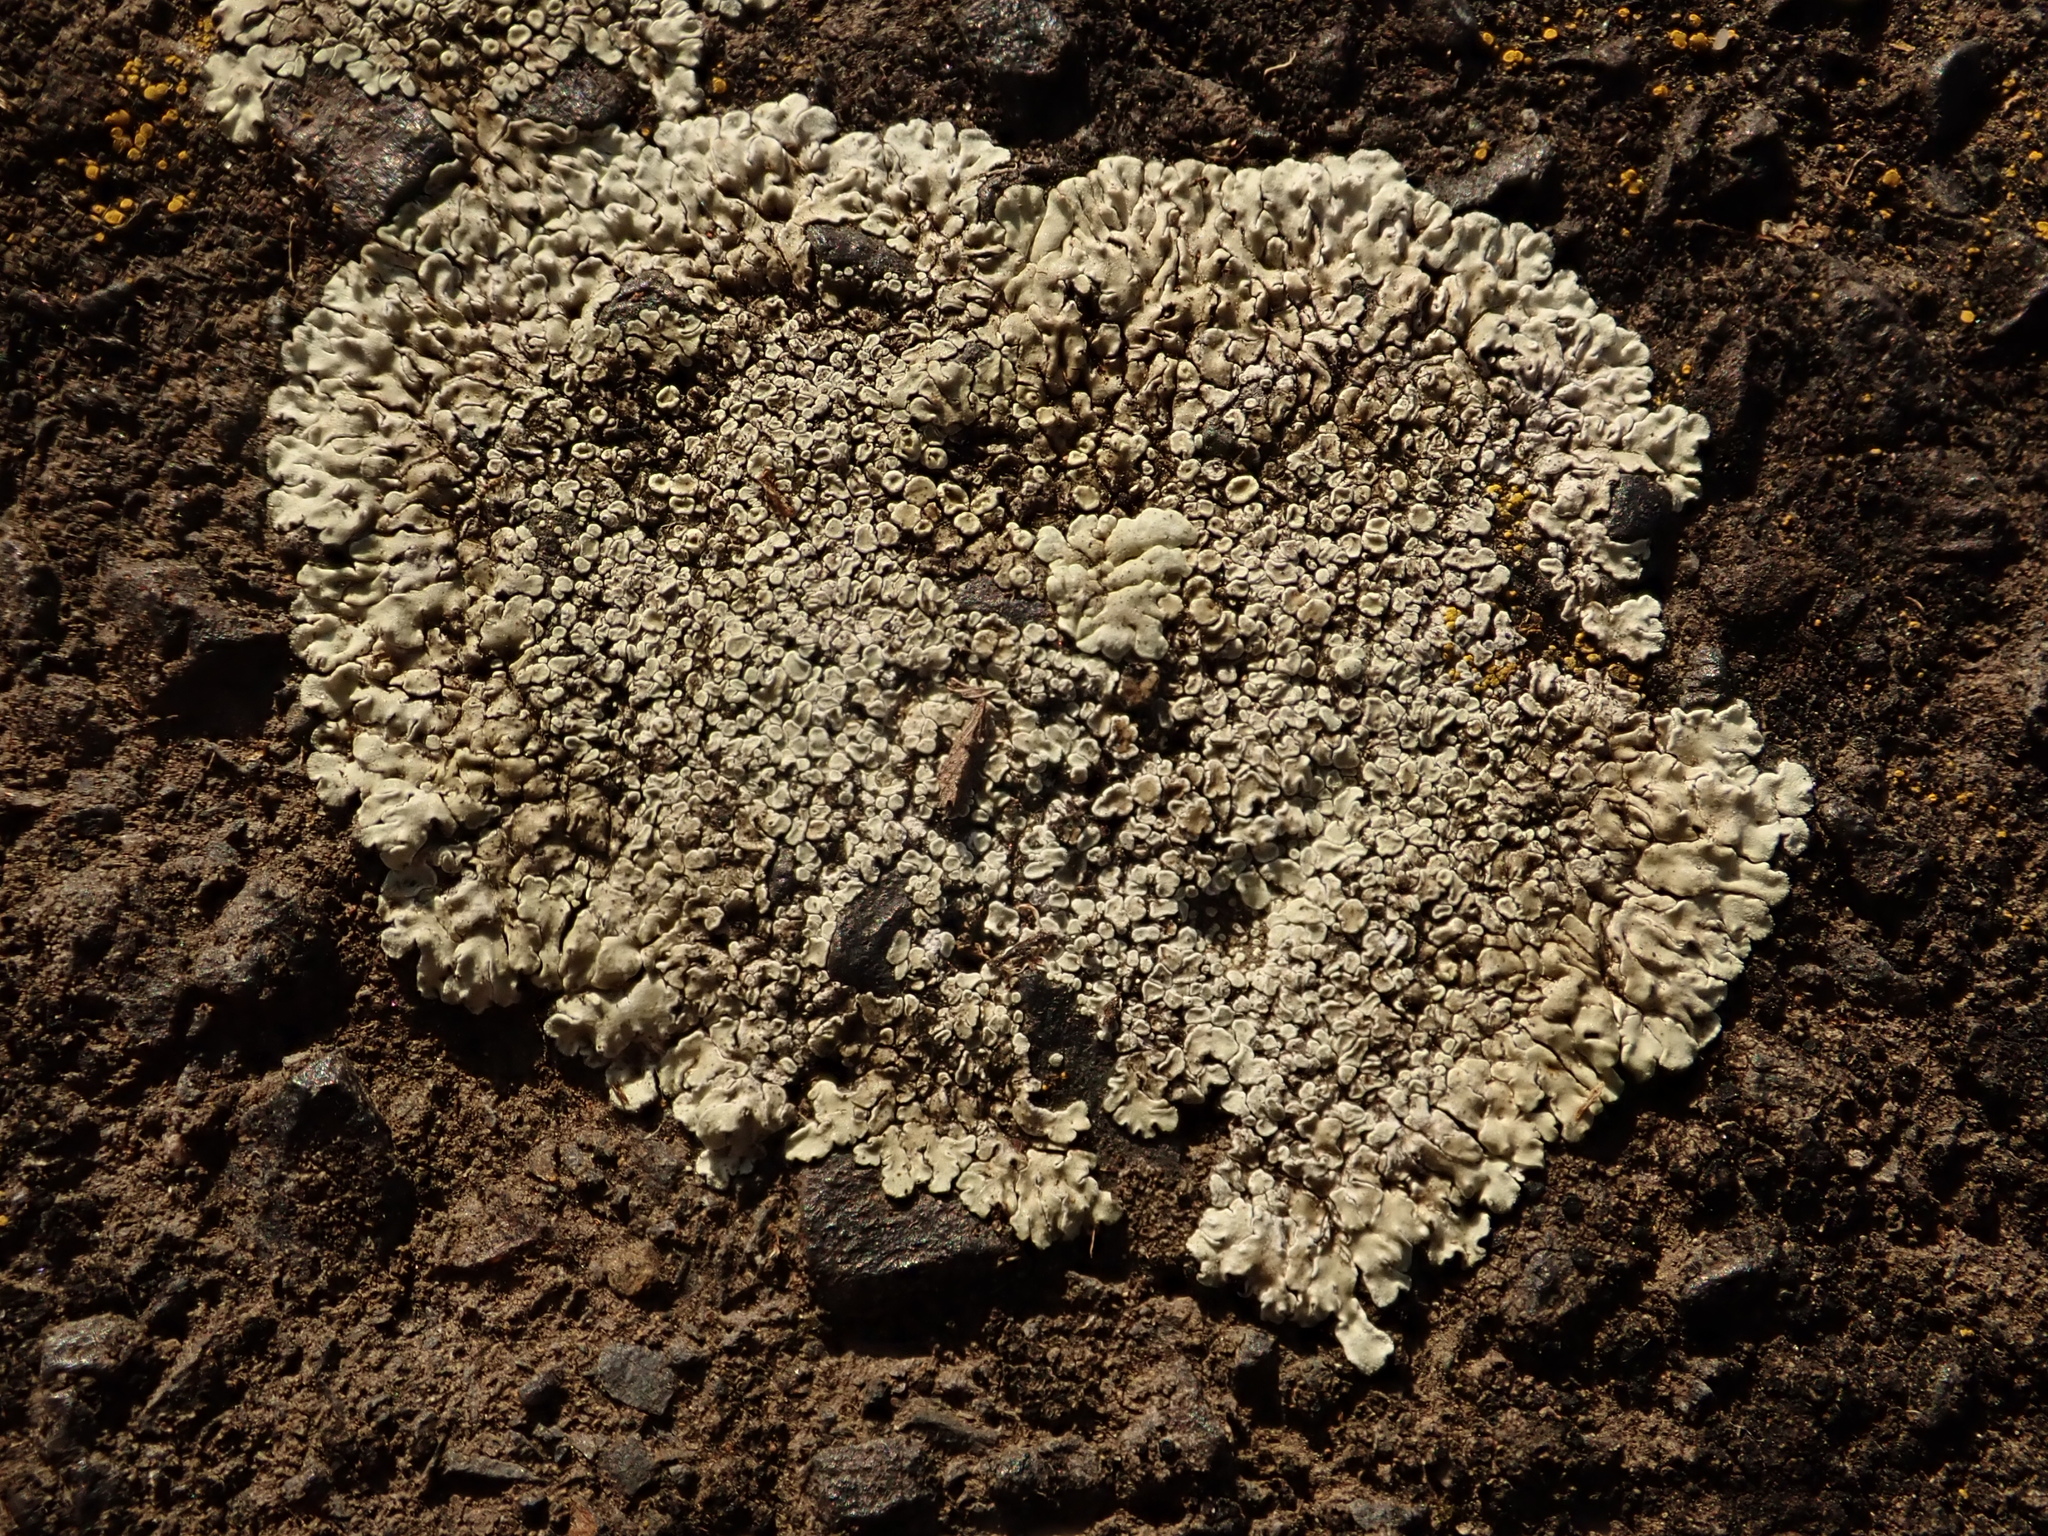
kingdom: Fungi
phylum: Ascomycota
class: Lecanoromycetes
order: Lecanorales
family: Lecanoraceae
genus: Protoparmeliopsis
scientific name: Protoparmeliopsis muralis
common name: Stonewall rim lichen
